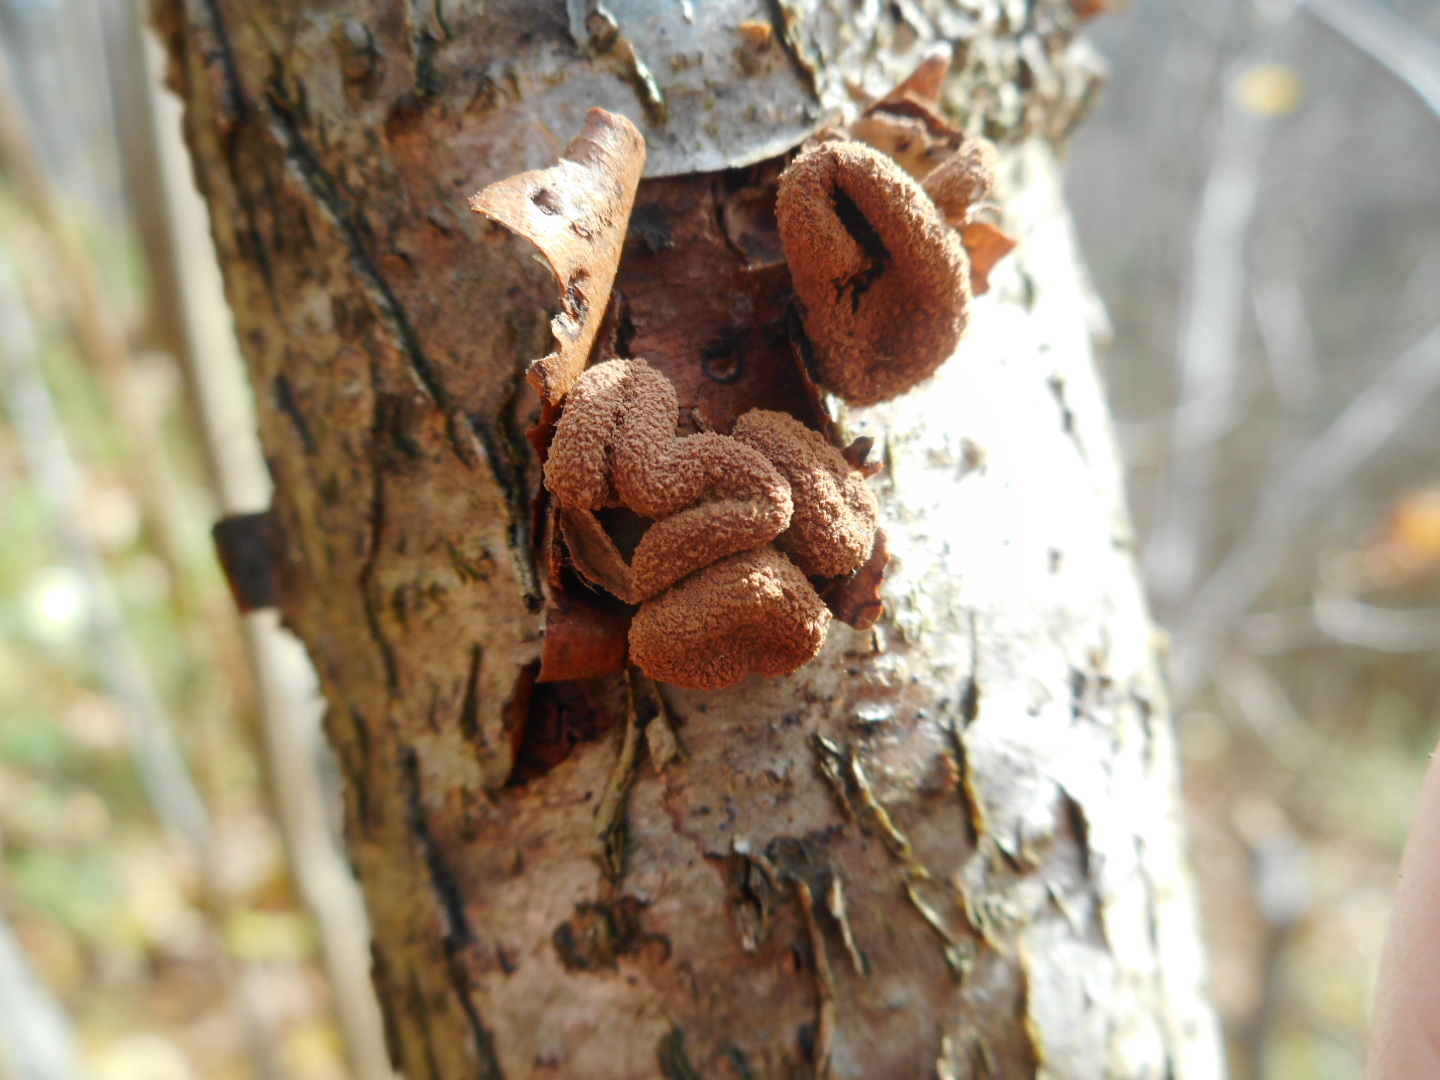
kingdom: Fungi
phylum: Ascomycota
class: Leotiomycetes
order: Helotiales
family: Cenangiaceae
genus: Encoelia
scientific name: Encoelia furfuracea
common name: Spring hazelcup
